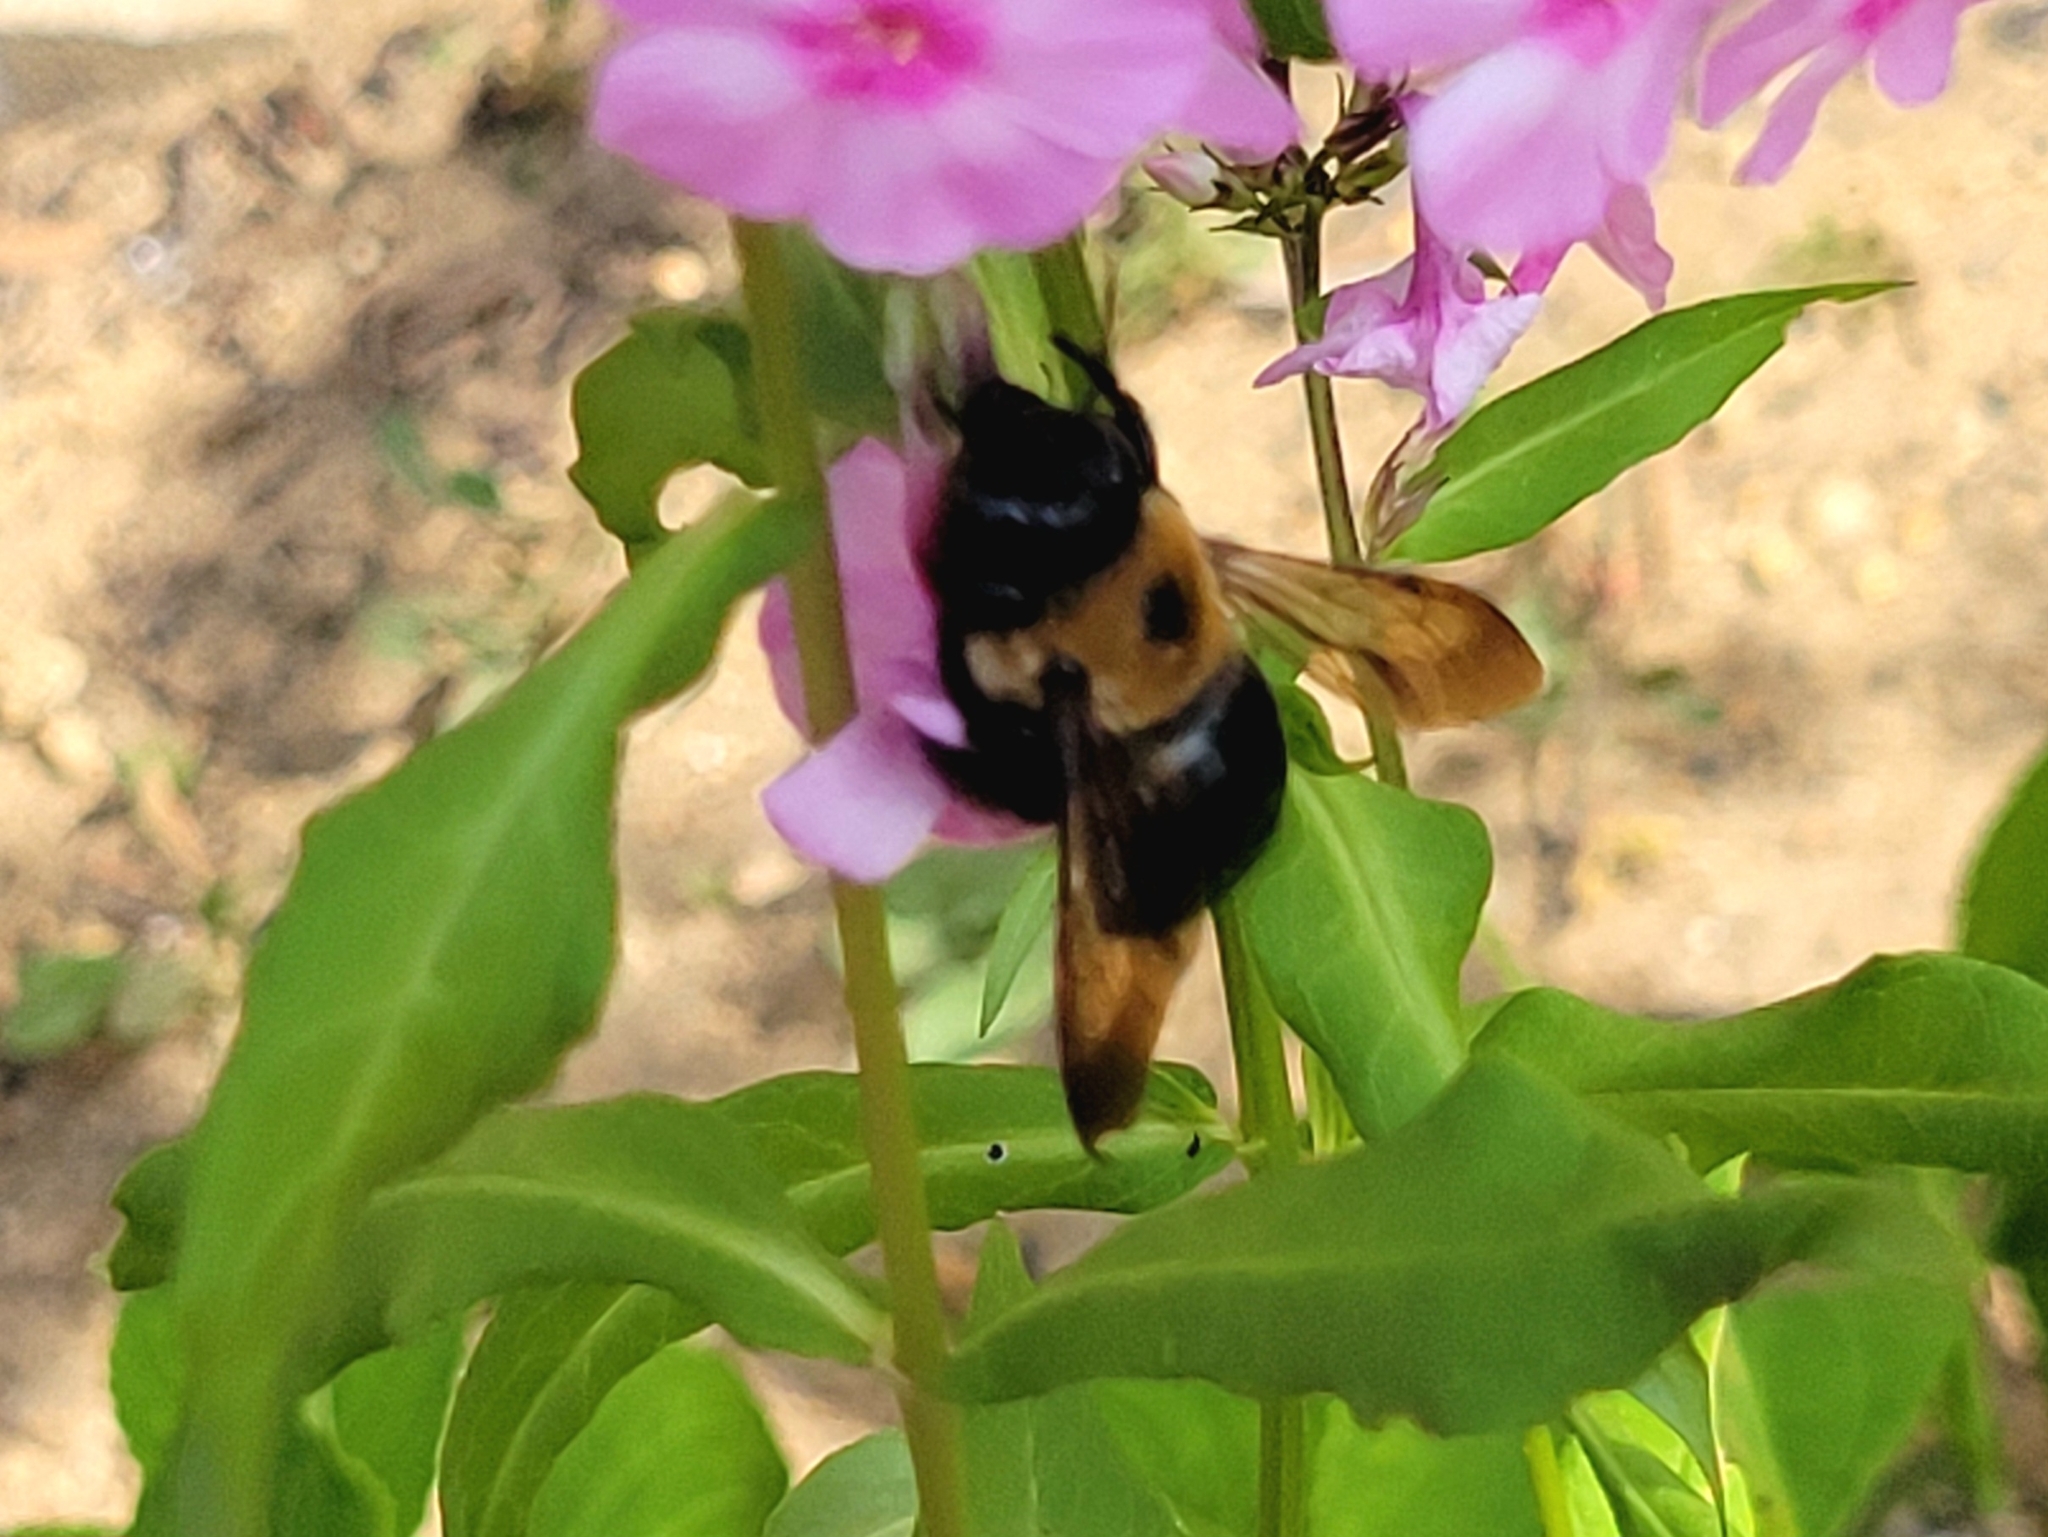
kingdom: Animalia
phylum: Arthropoda
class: Insecta
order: Hymenoptera
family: Apidae
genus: Xylocopa
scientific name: Xylocopa virginica
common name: Carpenter bee
